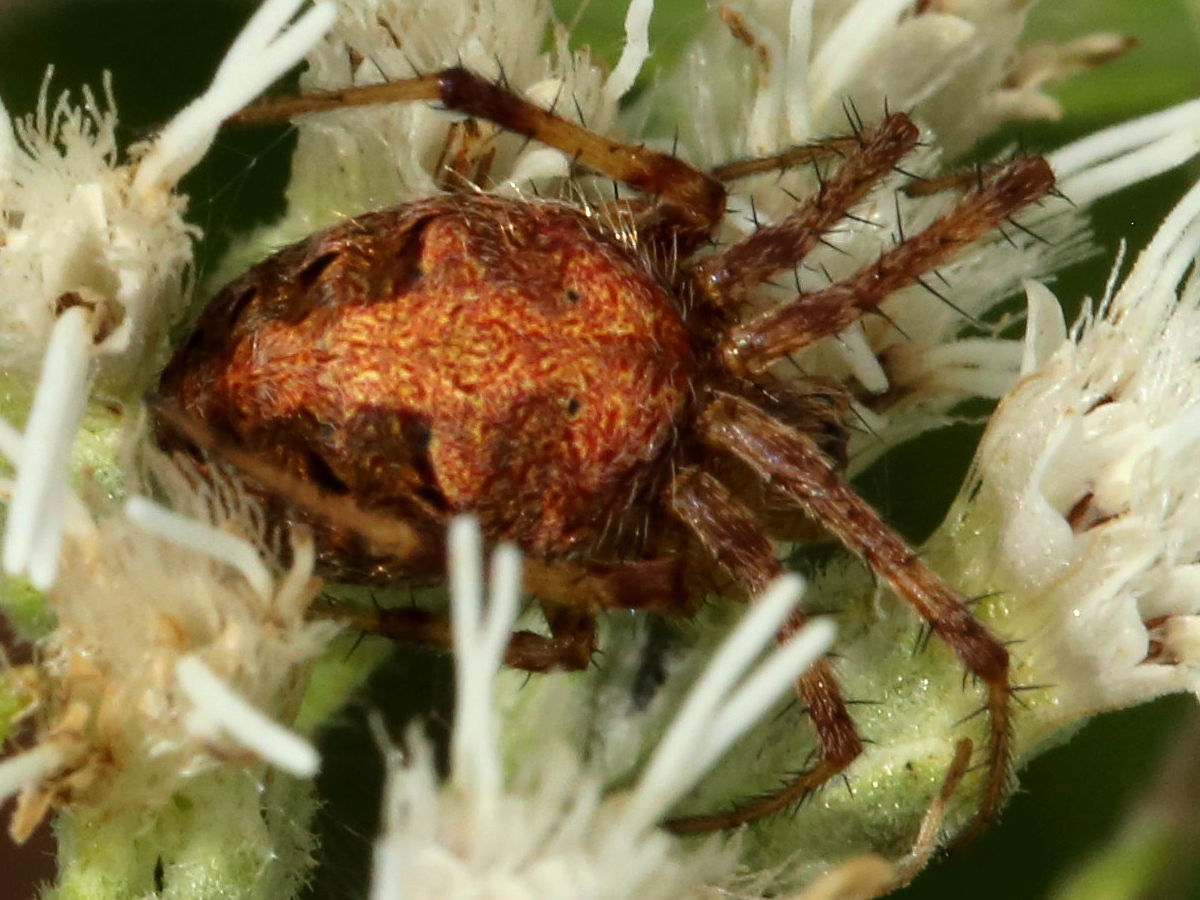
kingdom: Animalia
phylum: Arthropoda
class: Arachnida
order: Araneae
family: Araneidae
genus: Neoscona
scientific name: Neoscona arabesca
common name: Orb weavers
